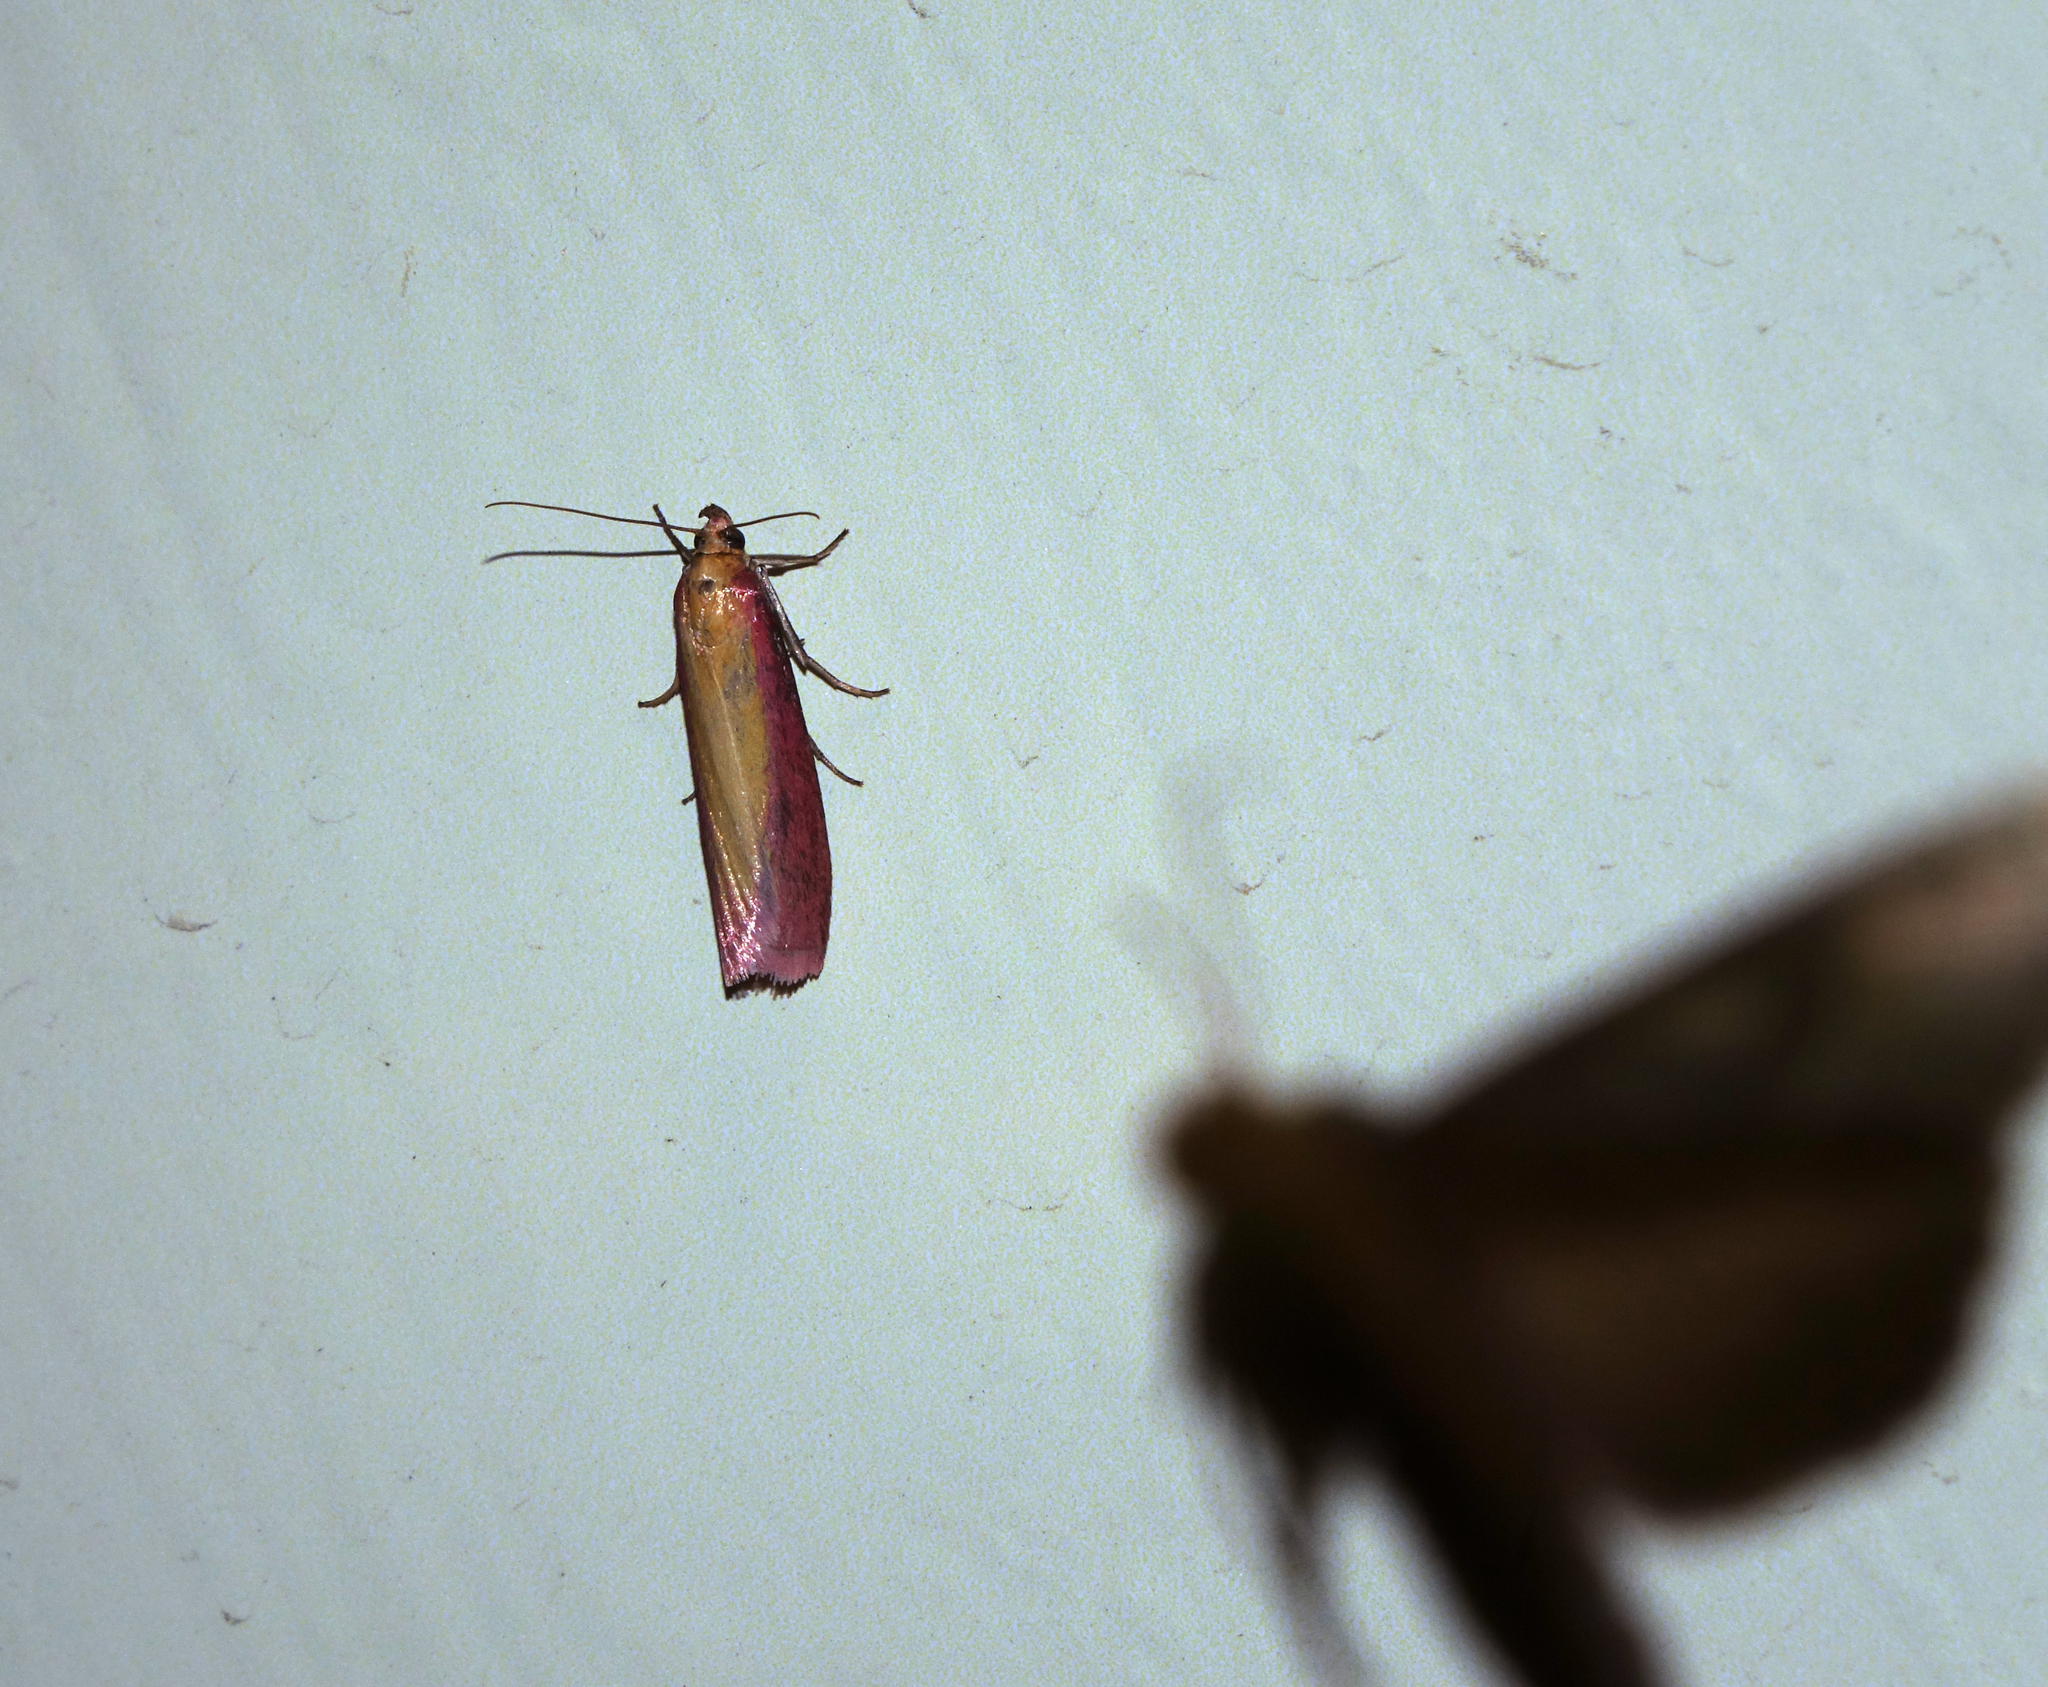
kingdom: Animalia
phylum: Arthropoda
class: Insecta
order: Lepidoptera
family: Pyralidae
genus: Oncocera
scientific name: Oncocera semirubella
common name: Rosy-striped knot-horn
